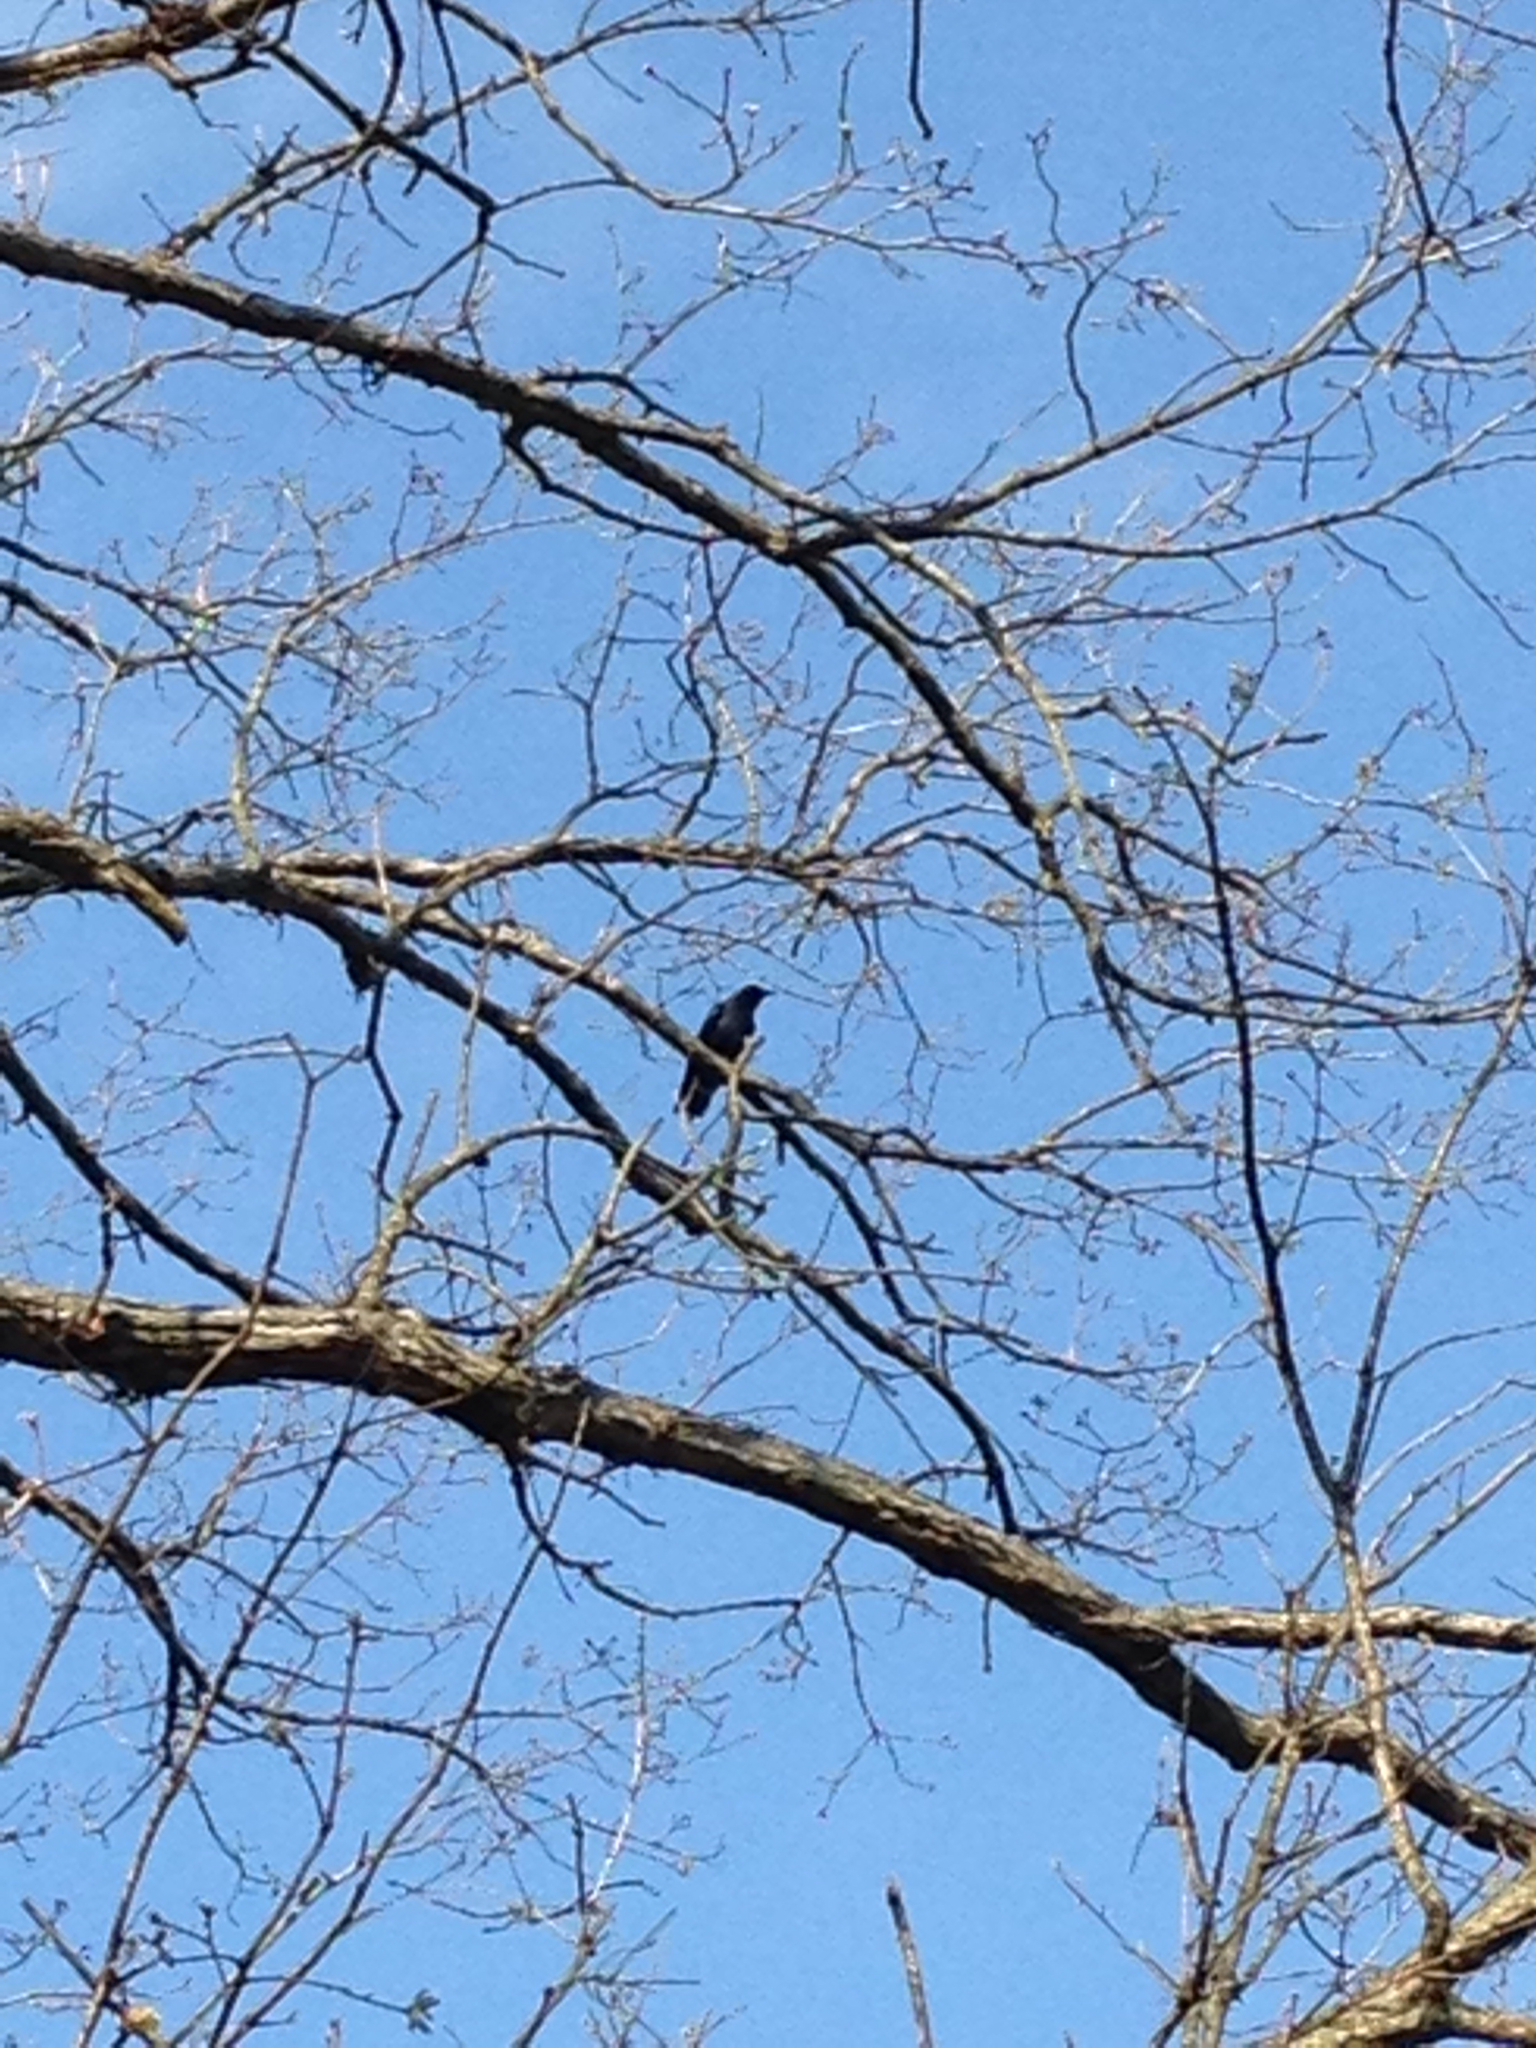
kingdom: Animalia
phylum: Chordata
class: Aves
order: Passeriformes
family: Corvidae
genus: Corvus
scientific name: Corvus ossifragus
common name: Fish crow
